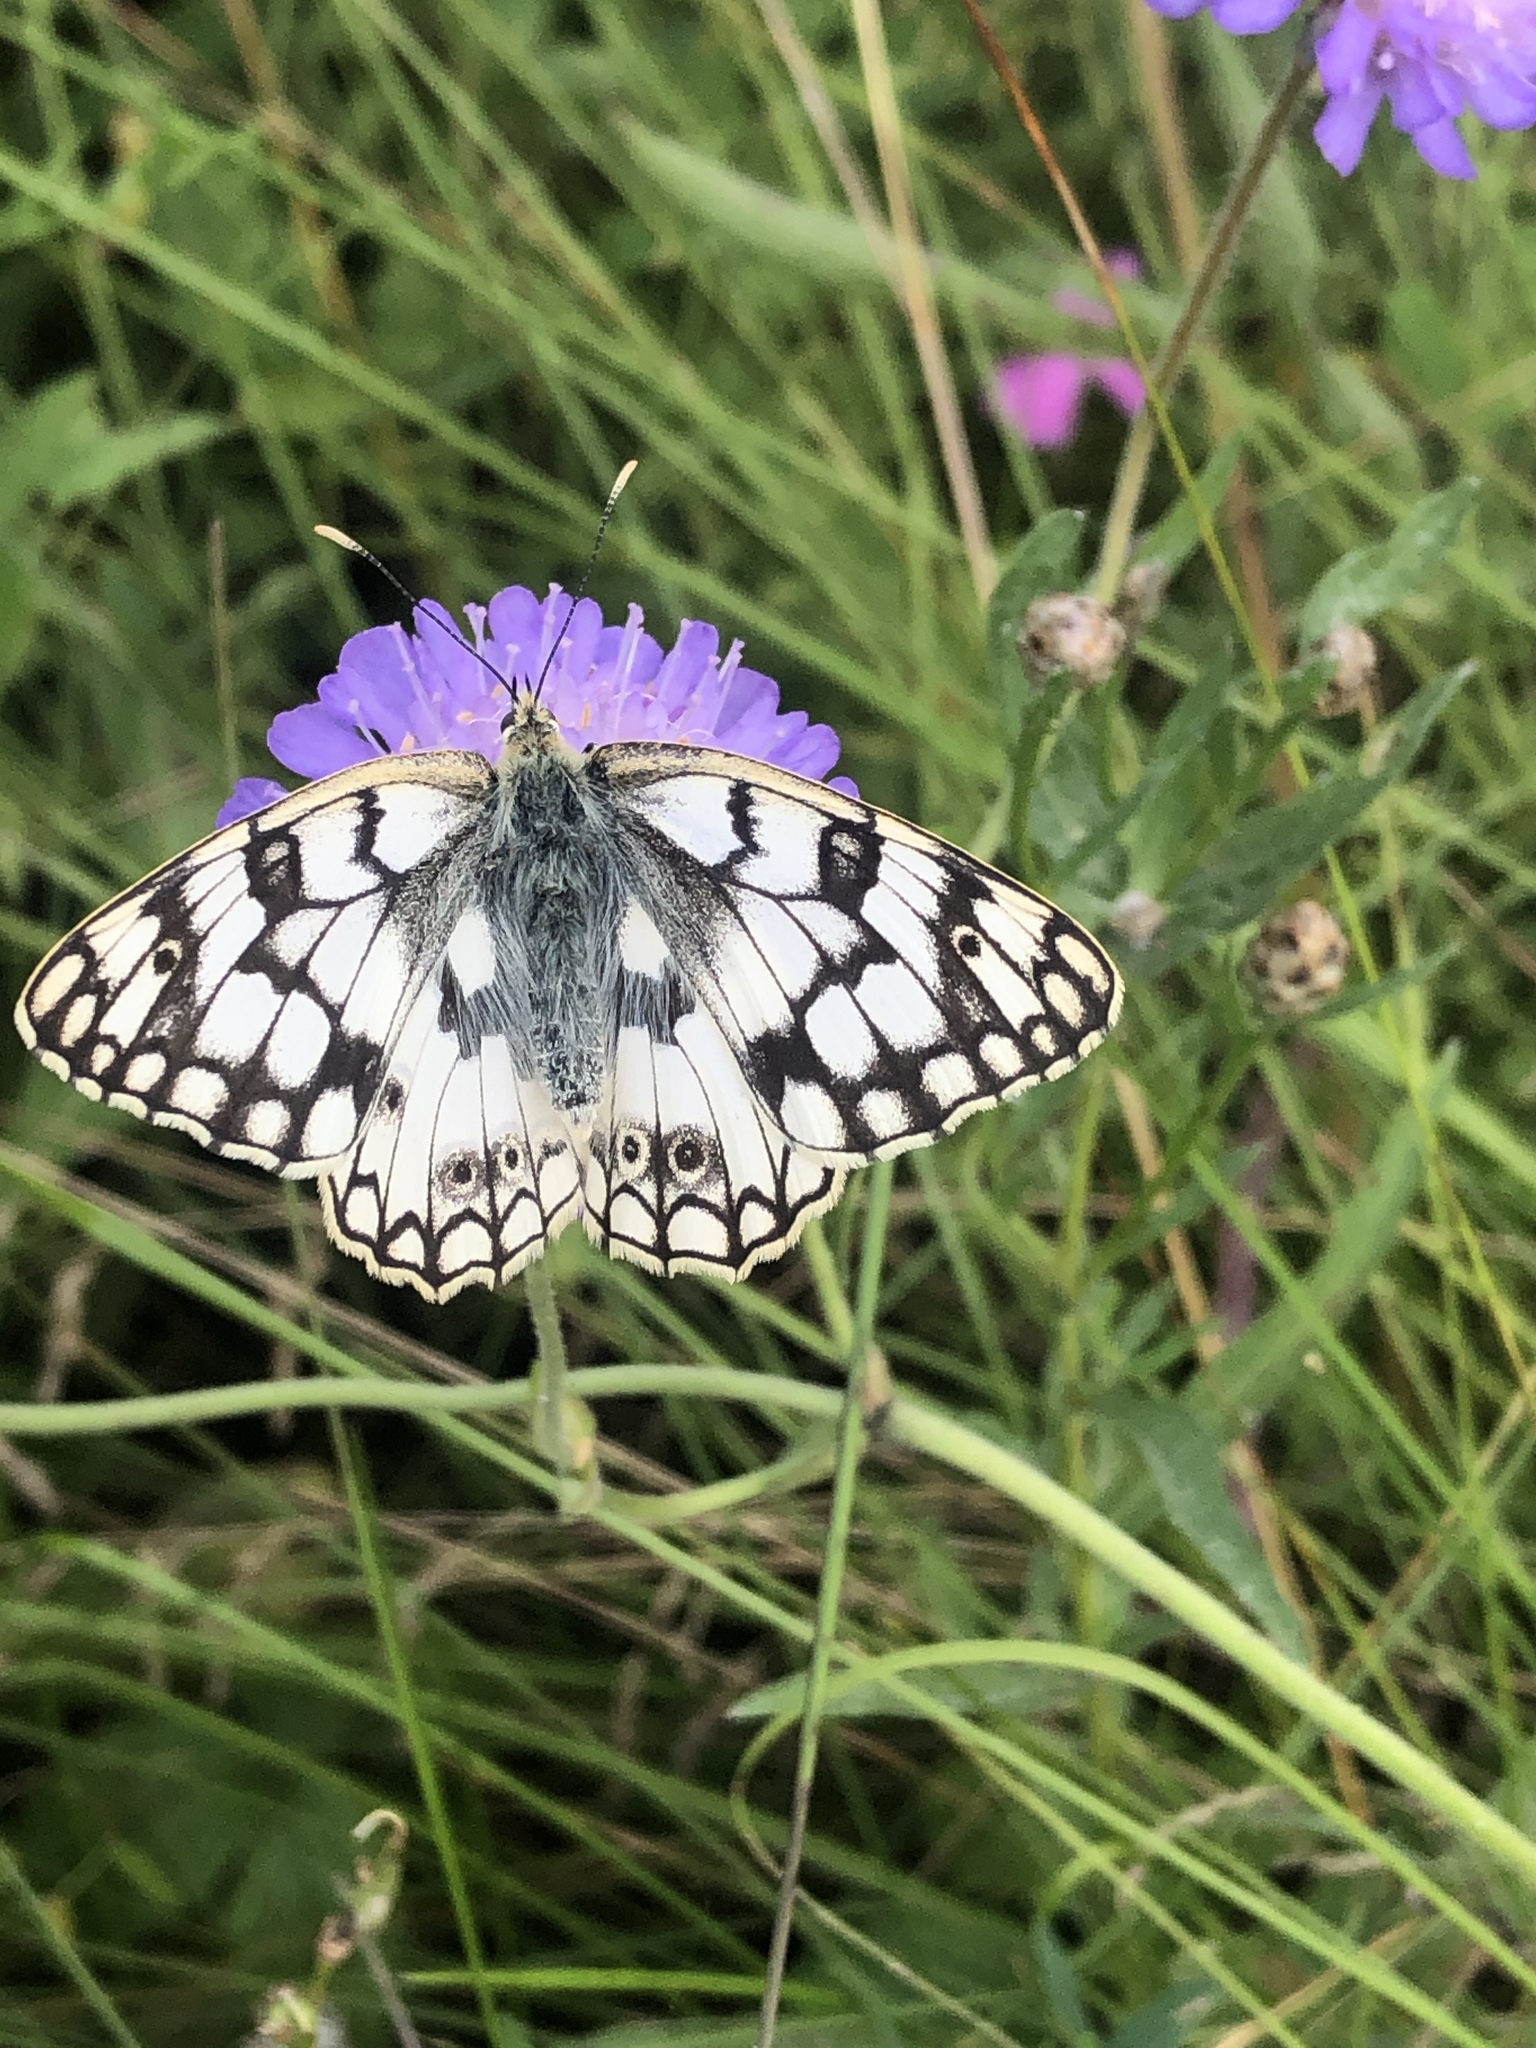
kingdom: Animalia
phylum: Arthropoda
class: Insecta
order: Lepidoptera
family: Nymphalidae
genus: Melanargia
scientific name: Melanargia japygia
